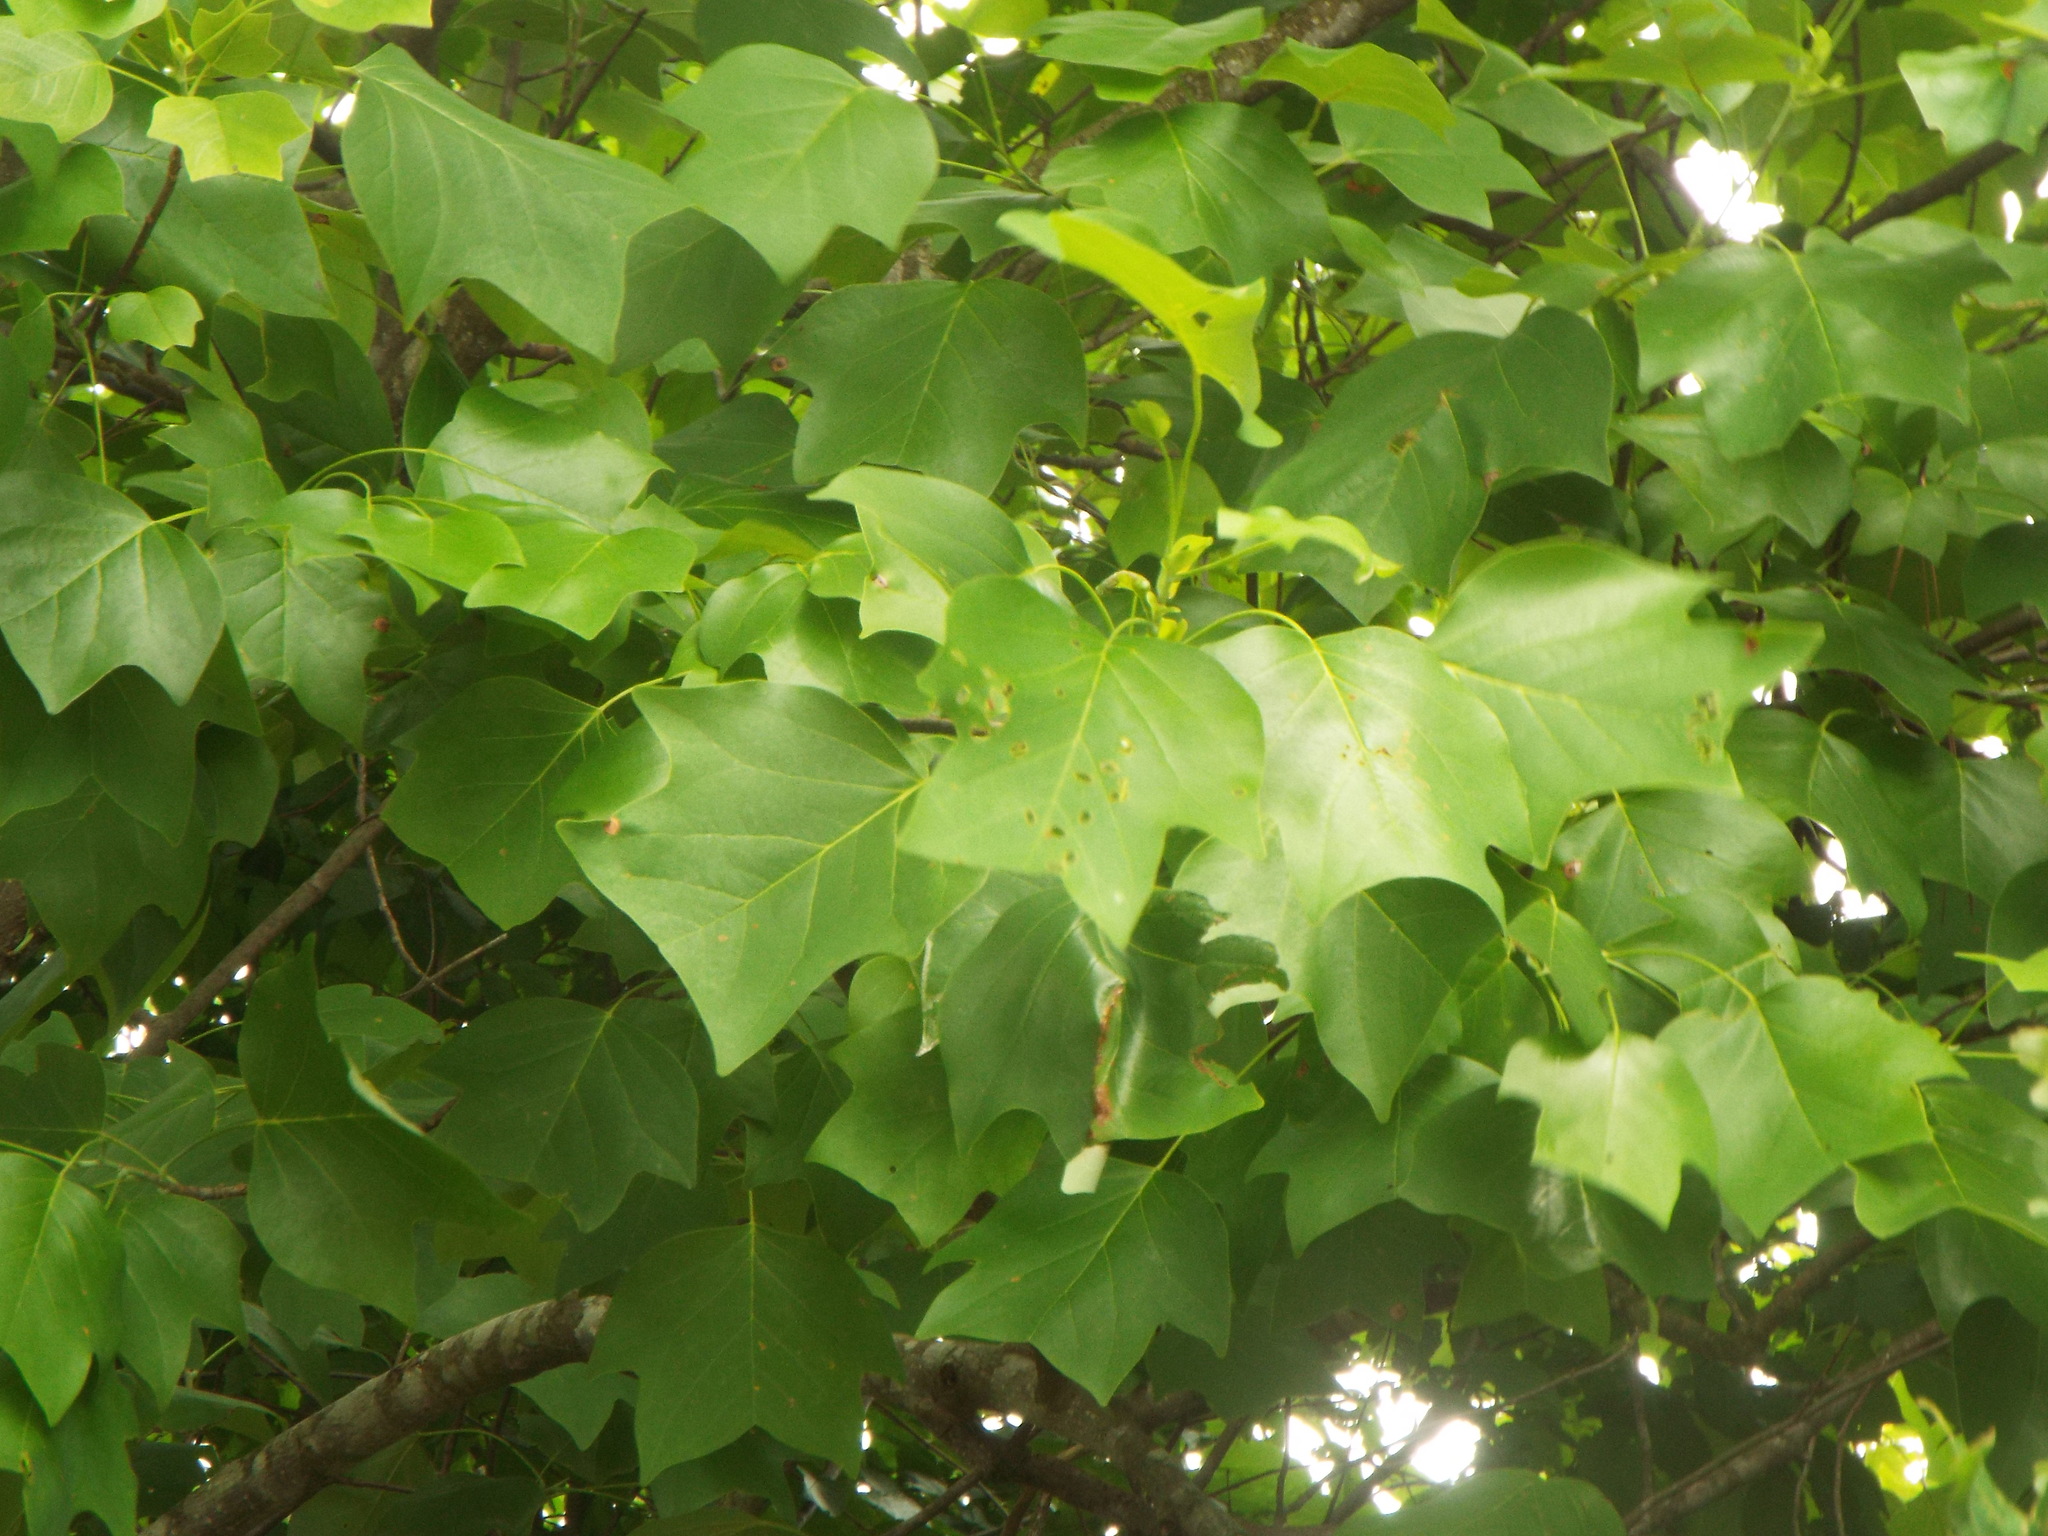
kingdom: Plantae
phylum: Tracheophyta
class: Magnoliopsida
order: Magnoliales
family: Magnoliaceae
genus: Liriodendron
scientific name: Liriodendron tulipifera
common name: Tulip tree
